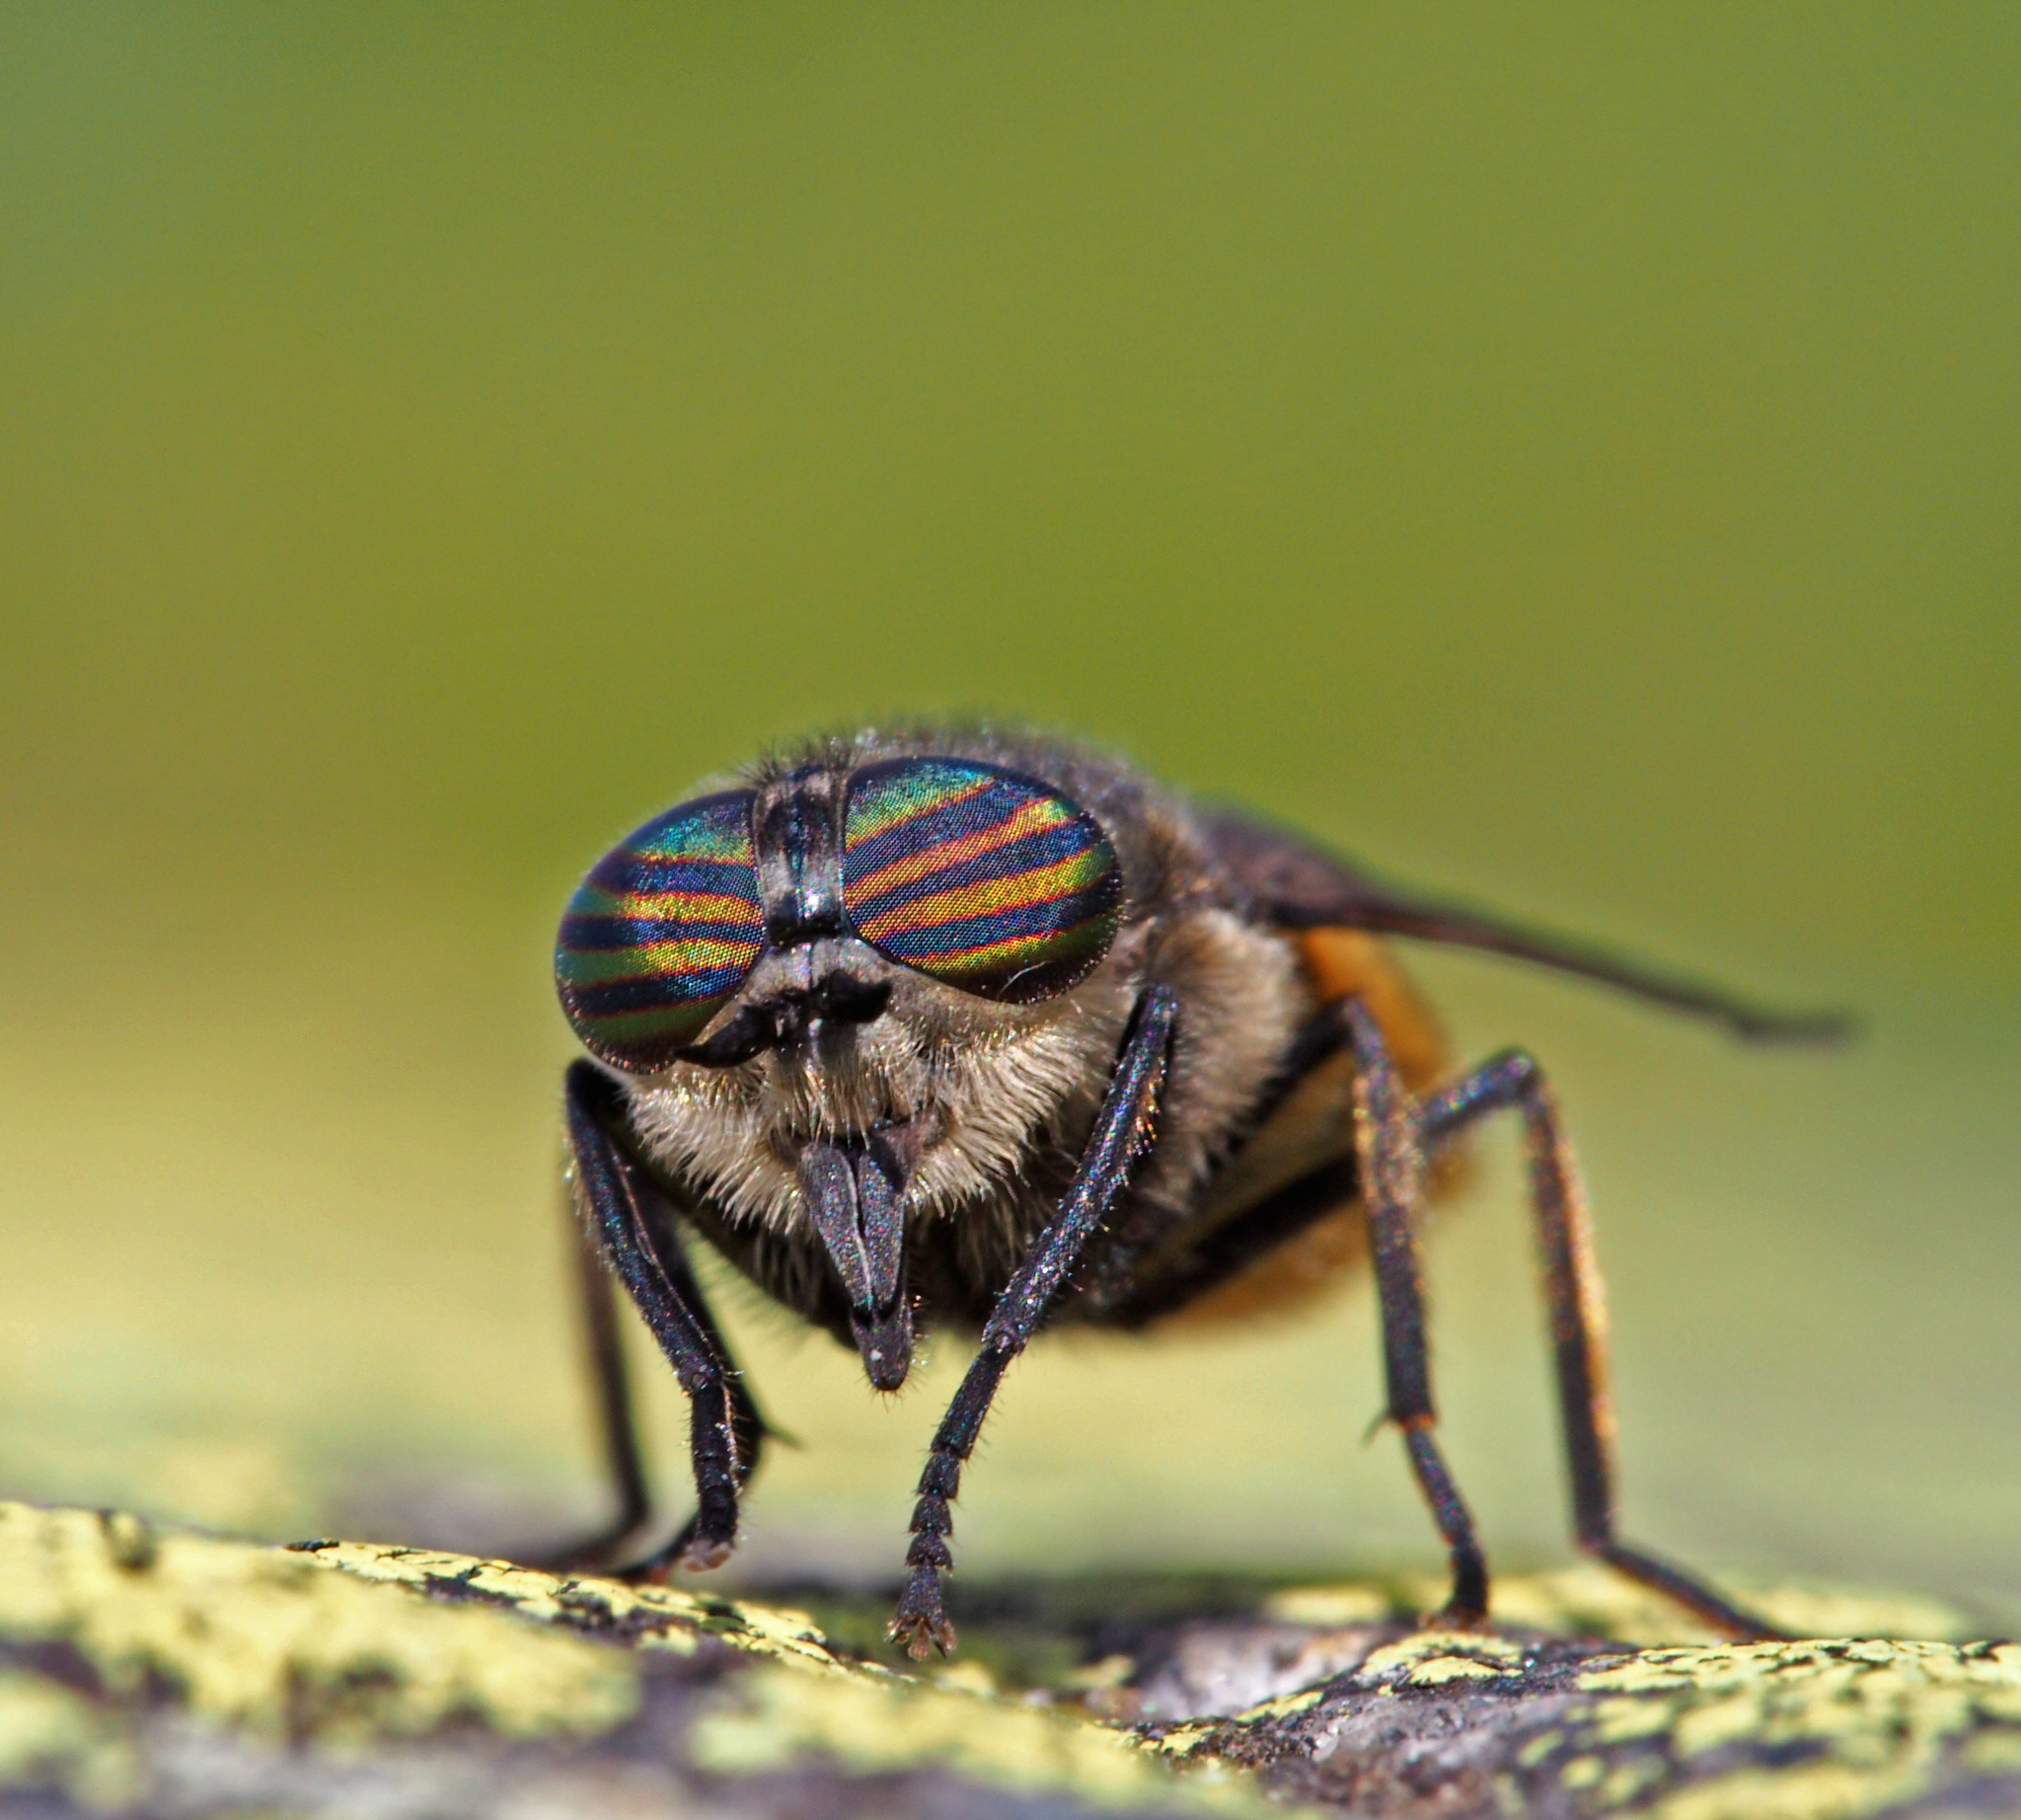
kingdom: Animalia
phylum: Arthropoda
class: Insecta
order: Diptera
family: Tabanidae
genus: Hybomitra
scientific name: Hybomitra aterrima
